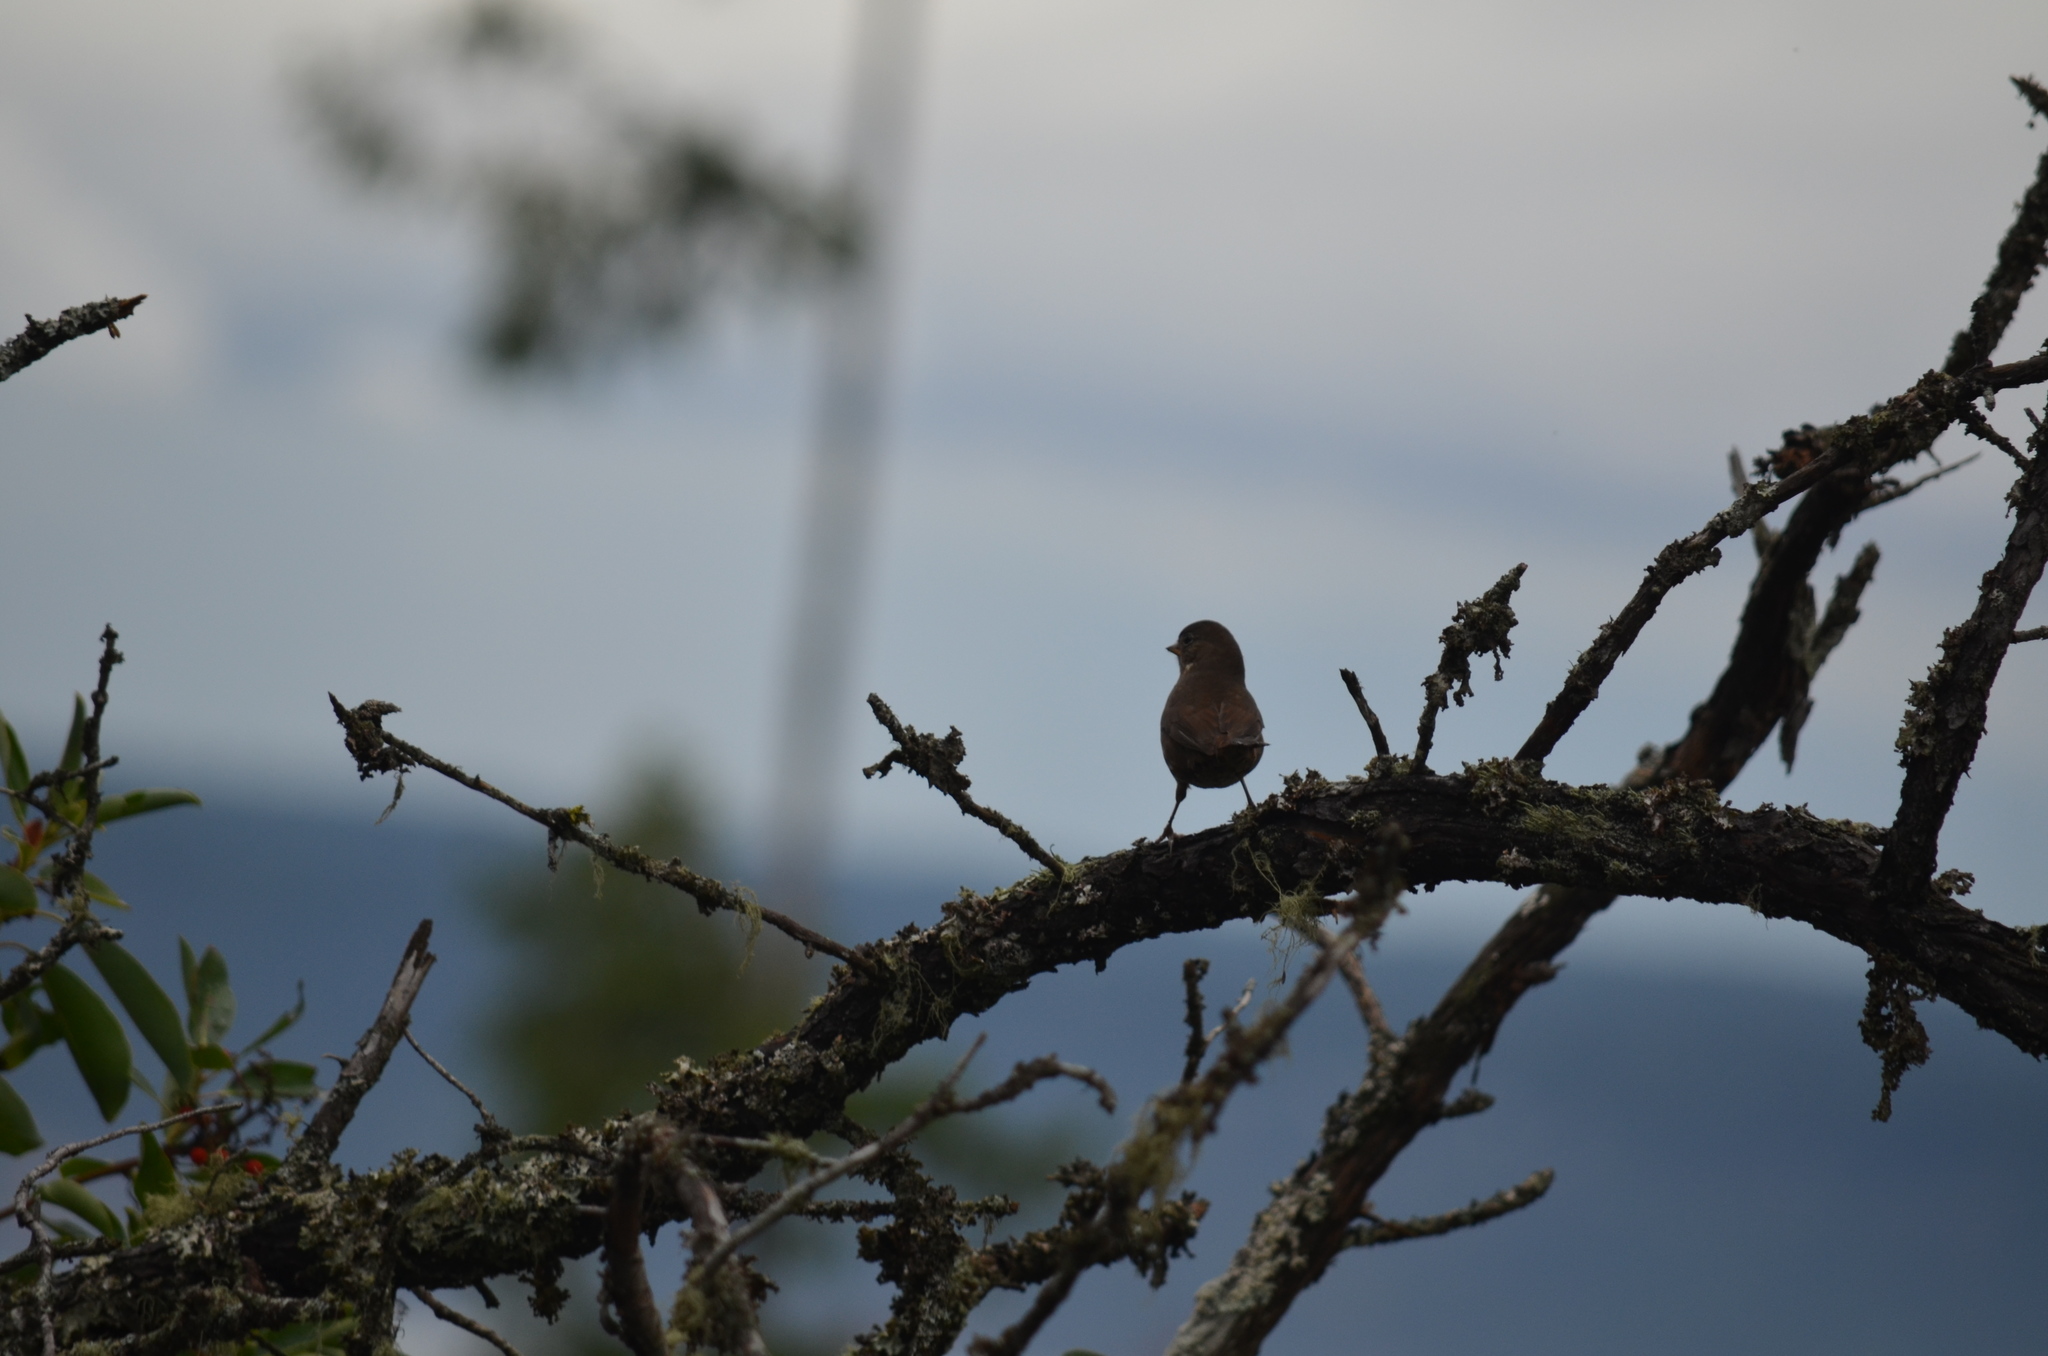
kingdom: Animalia
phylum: Chordata
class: Aves
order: Passeriformes
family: Passerellidae
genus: Passerella
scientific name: Passerella iliaca
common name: Fox sparrow
